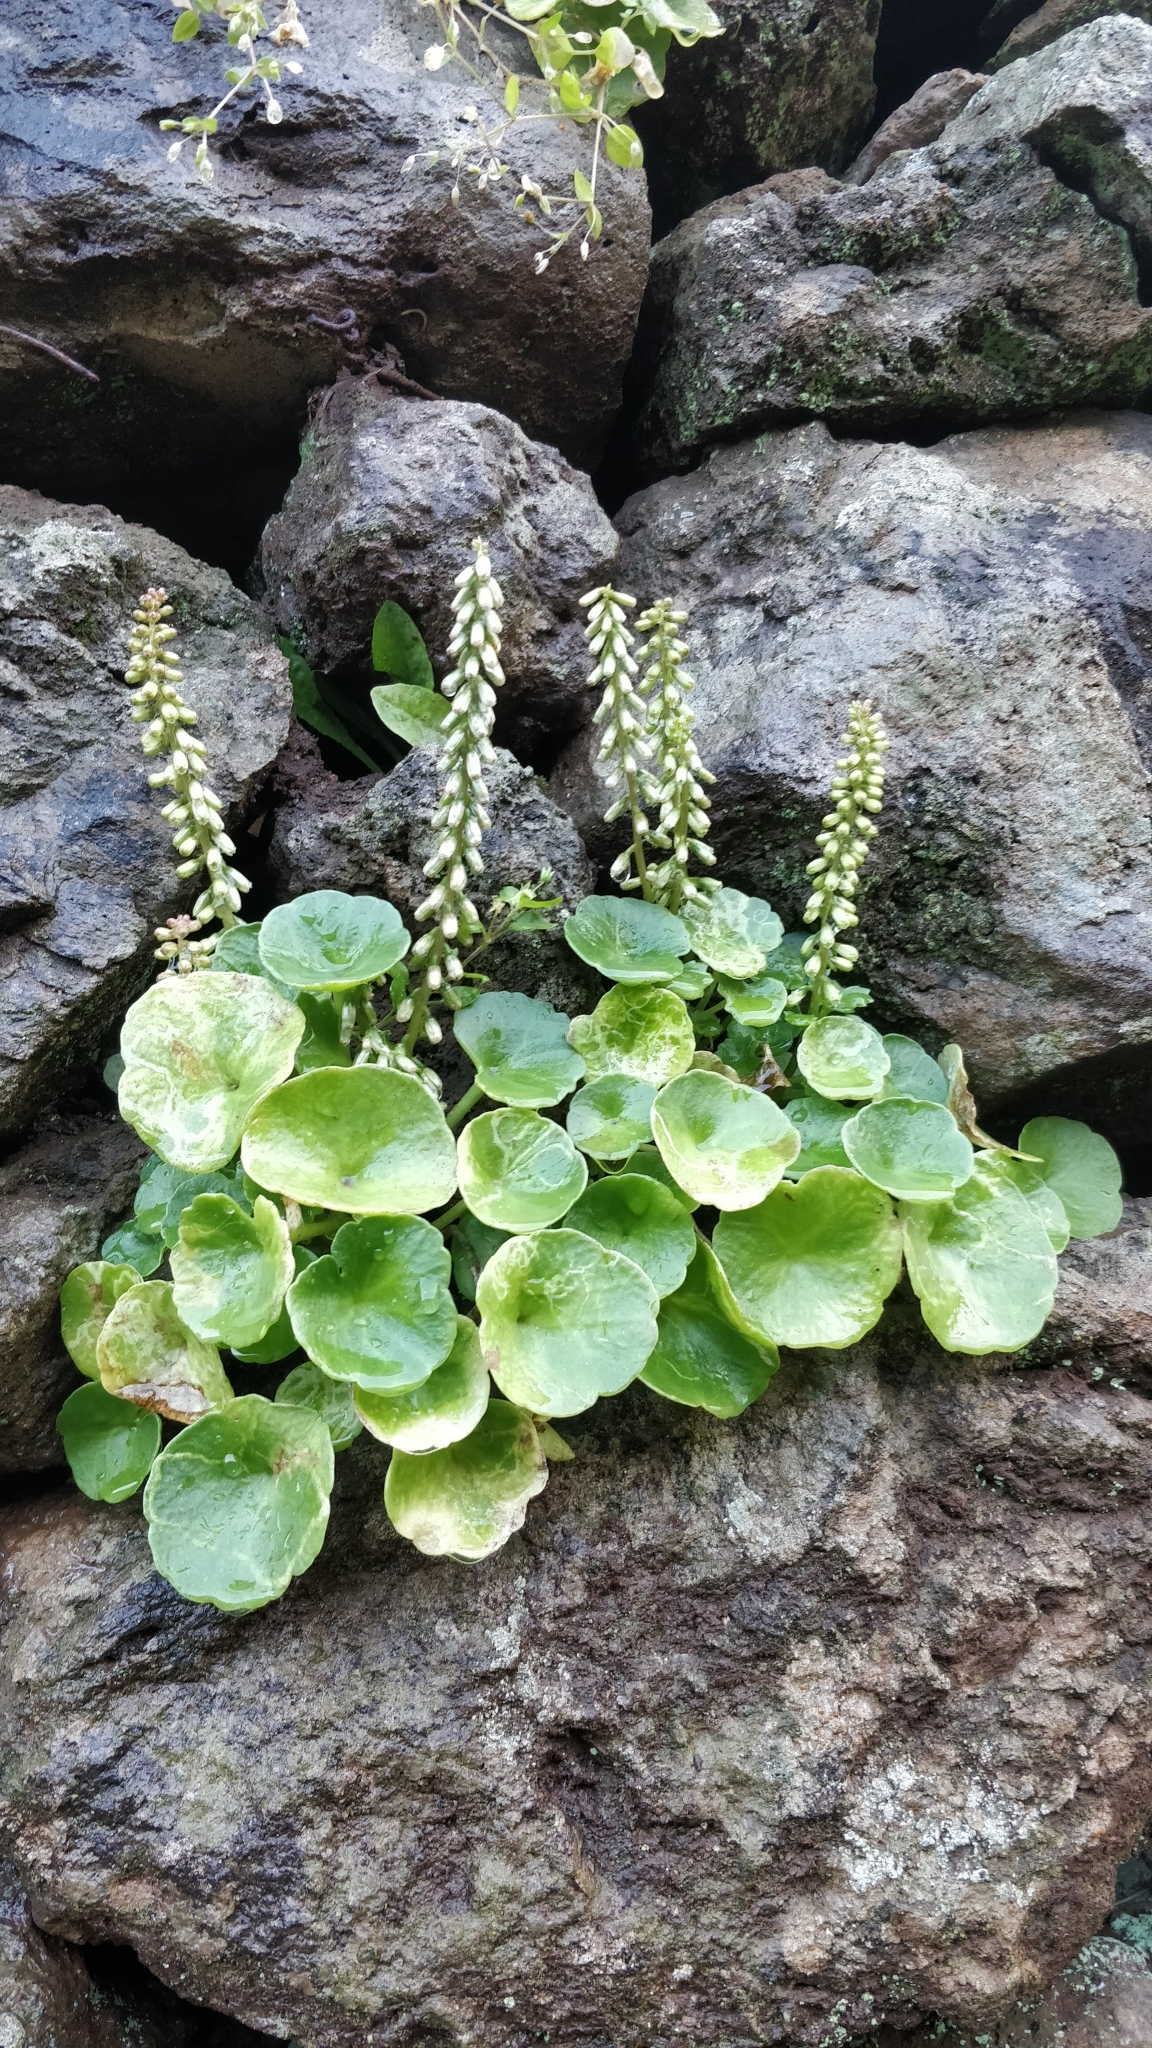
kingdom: Plantae
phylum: Tracheophyta
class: Magnoliopsida
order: Saxifragales
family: Crassulaceae
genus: Umbilicus
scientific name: Umbilicus rupestris
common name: Navelwort
